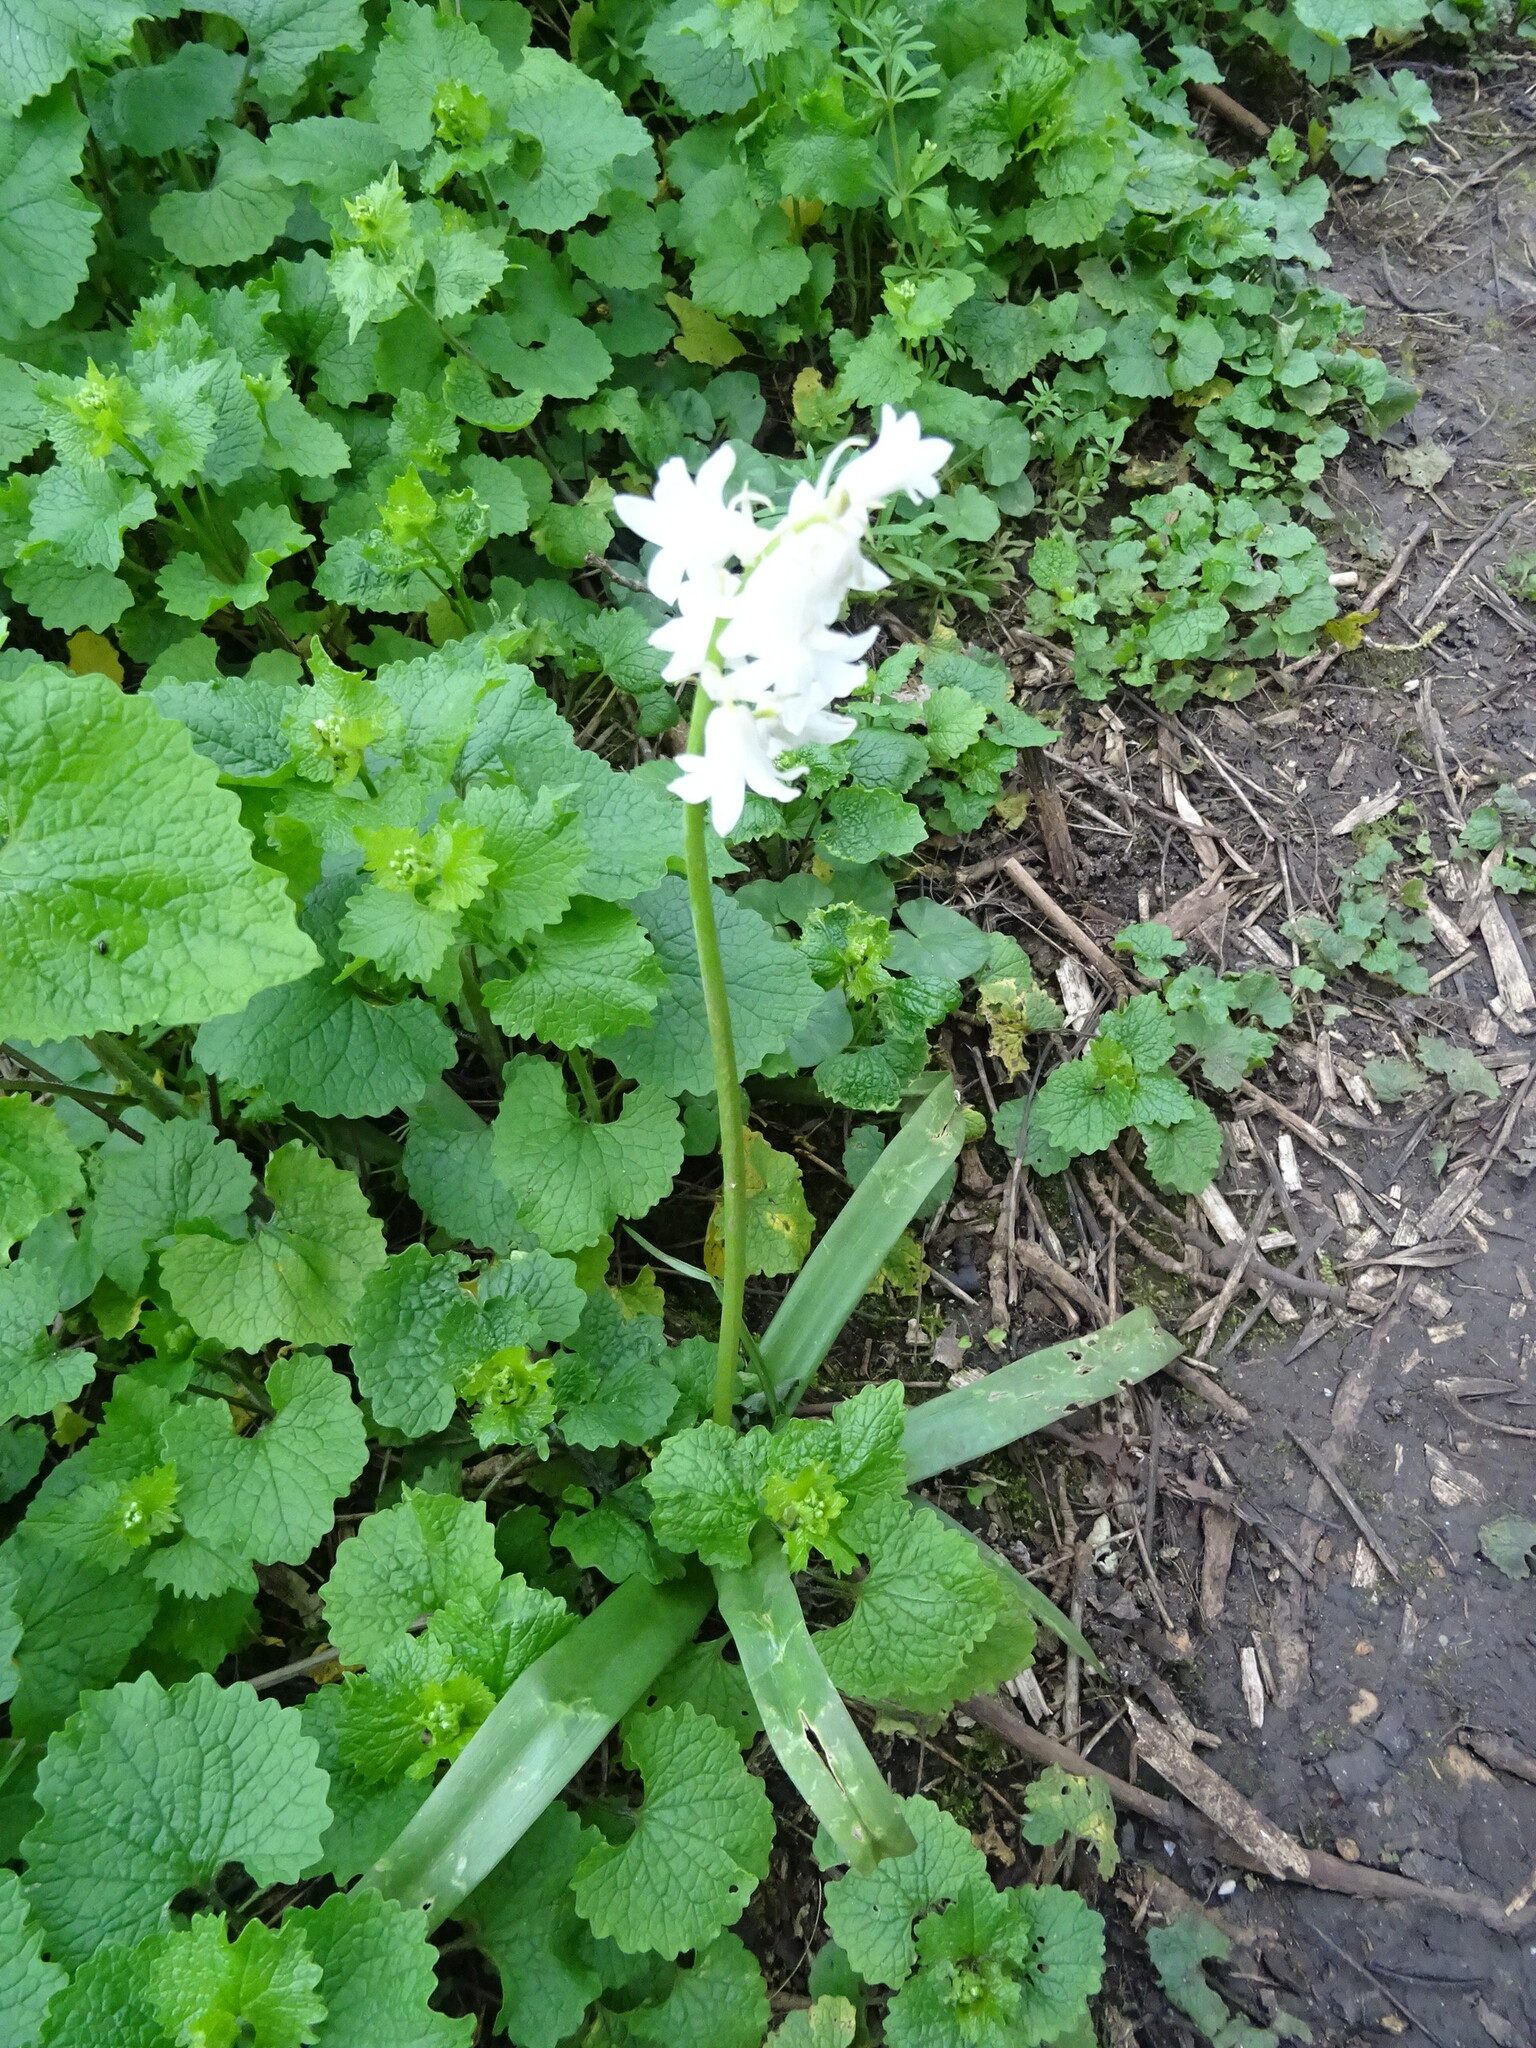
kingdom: Plantae
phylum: Tracheophyta
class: Liliopsida
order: Asparagales
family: Asparagaceae
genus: Hyacinthoides
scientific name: Hyacinthoides massartiana
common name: Hyacinthoides
